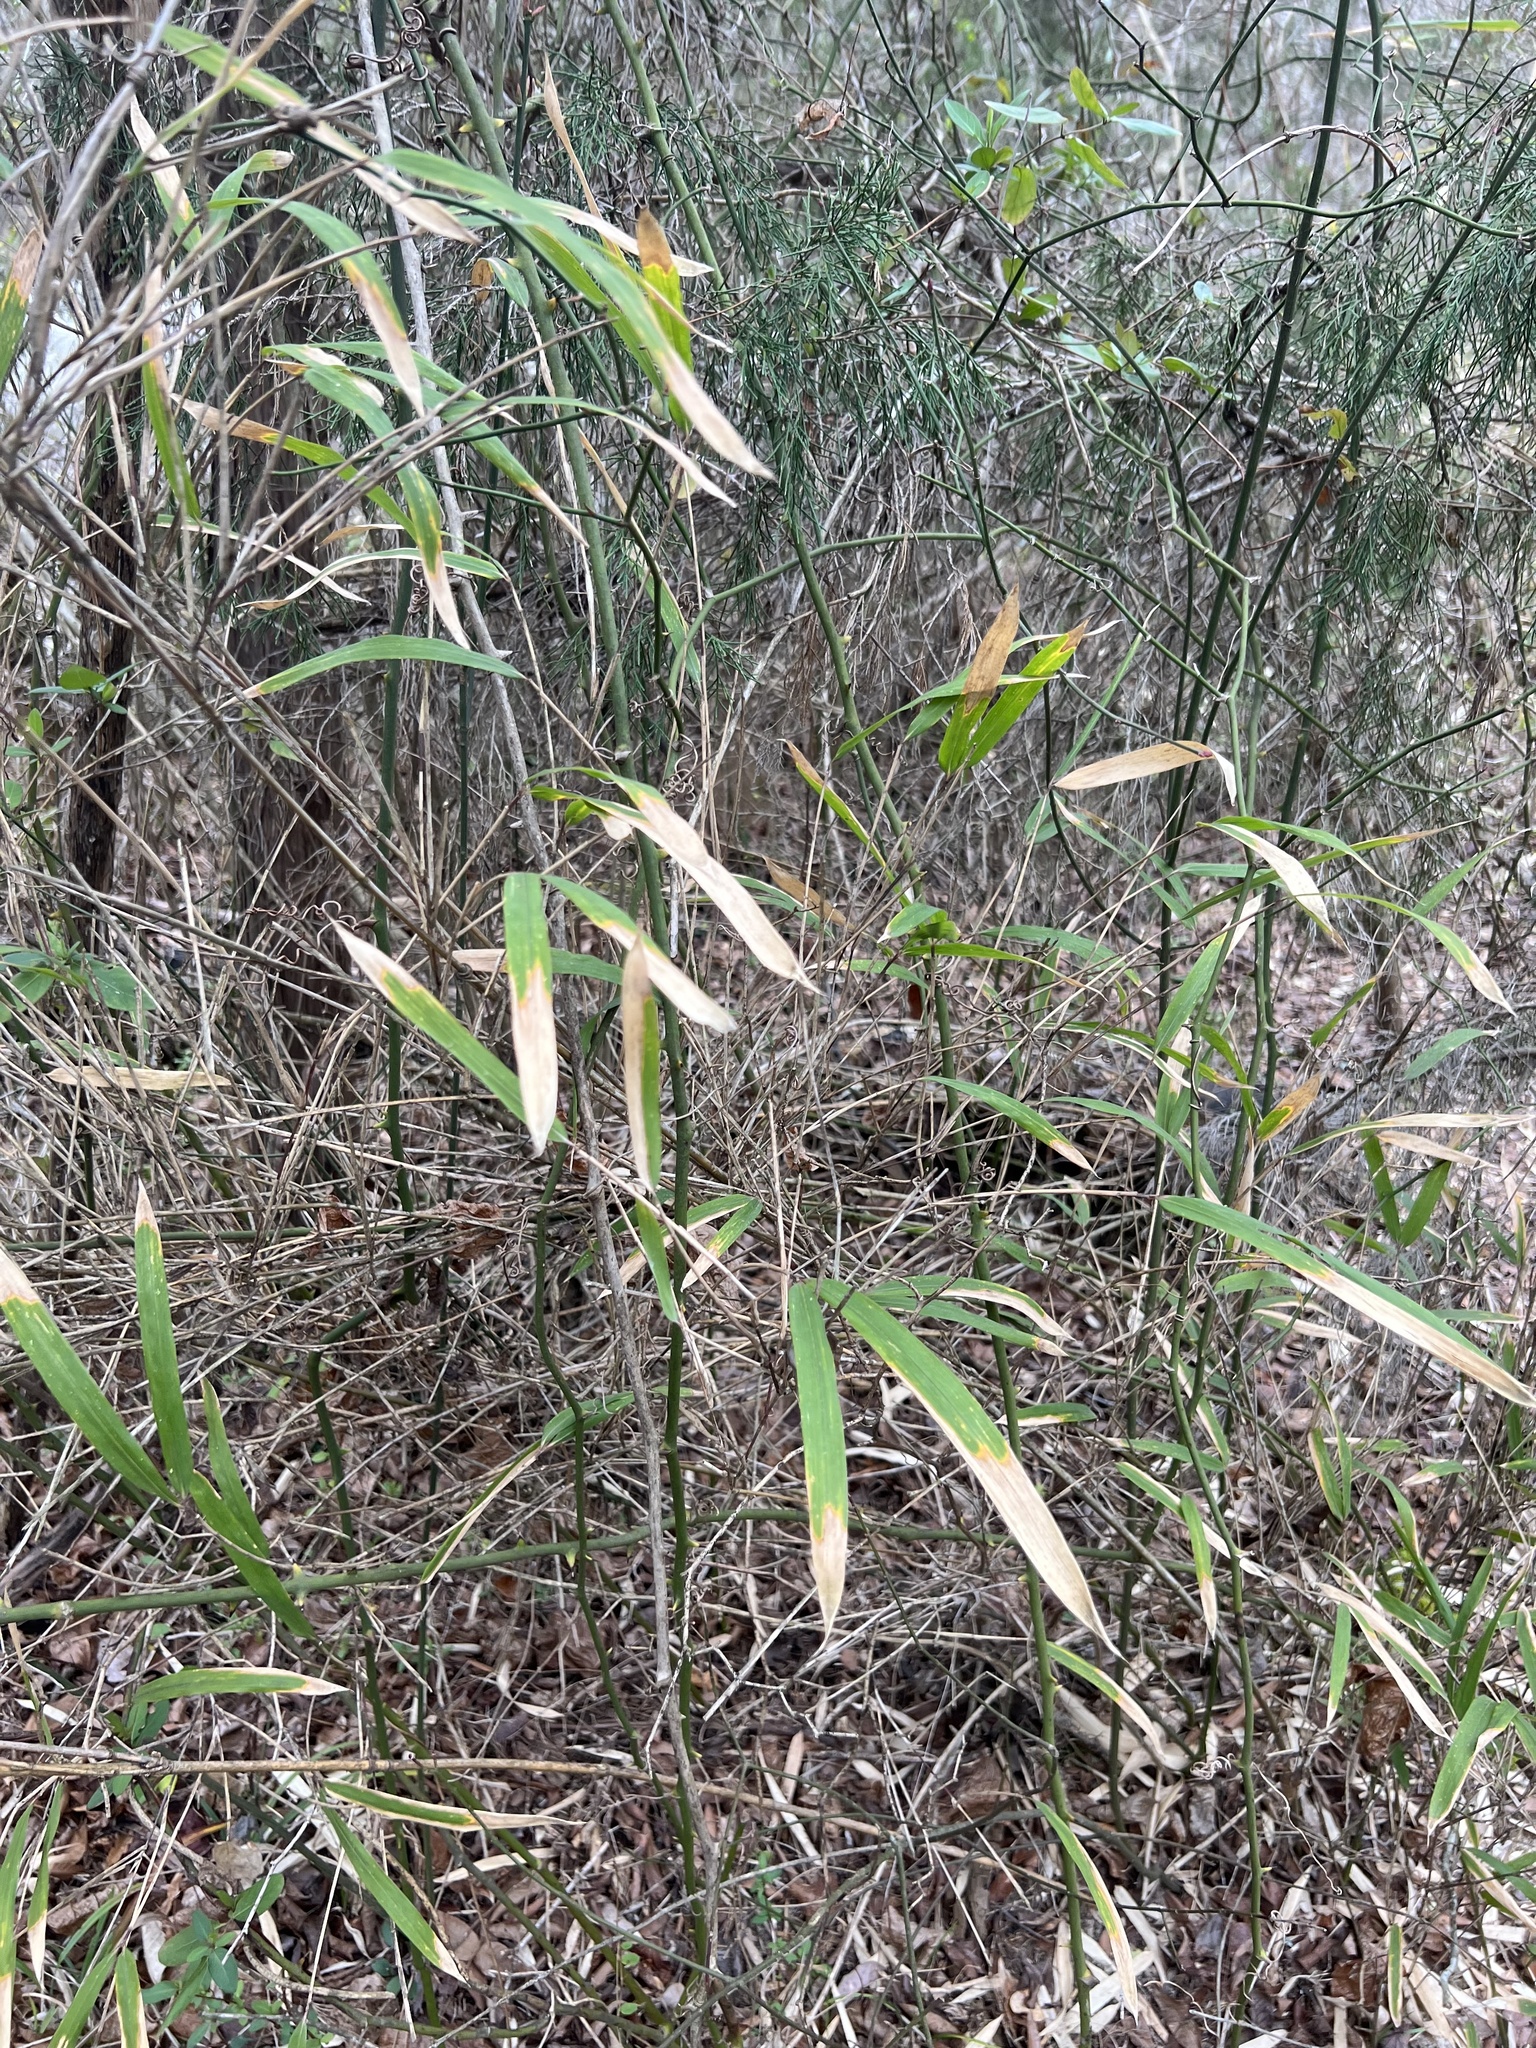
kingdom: Plantae
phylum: Tracheophyta
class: Liliopsida
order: Poales
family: Poaceae
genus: Arundinaria
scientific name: Arundinaria gigantea
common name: Giant cane
